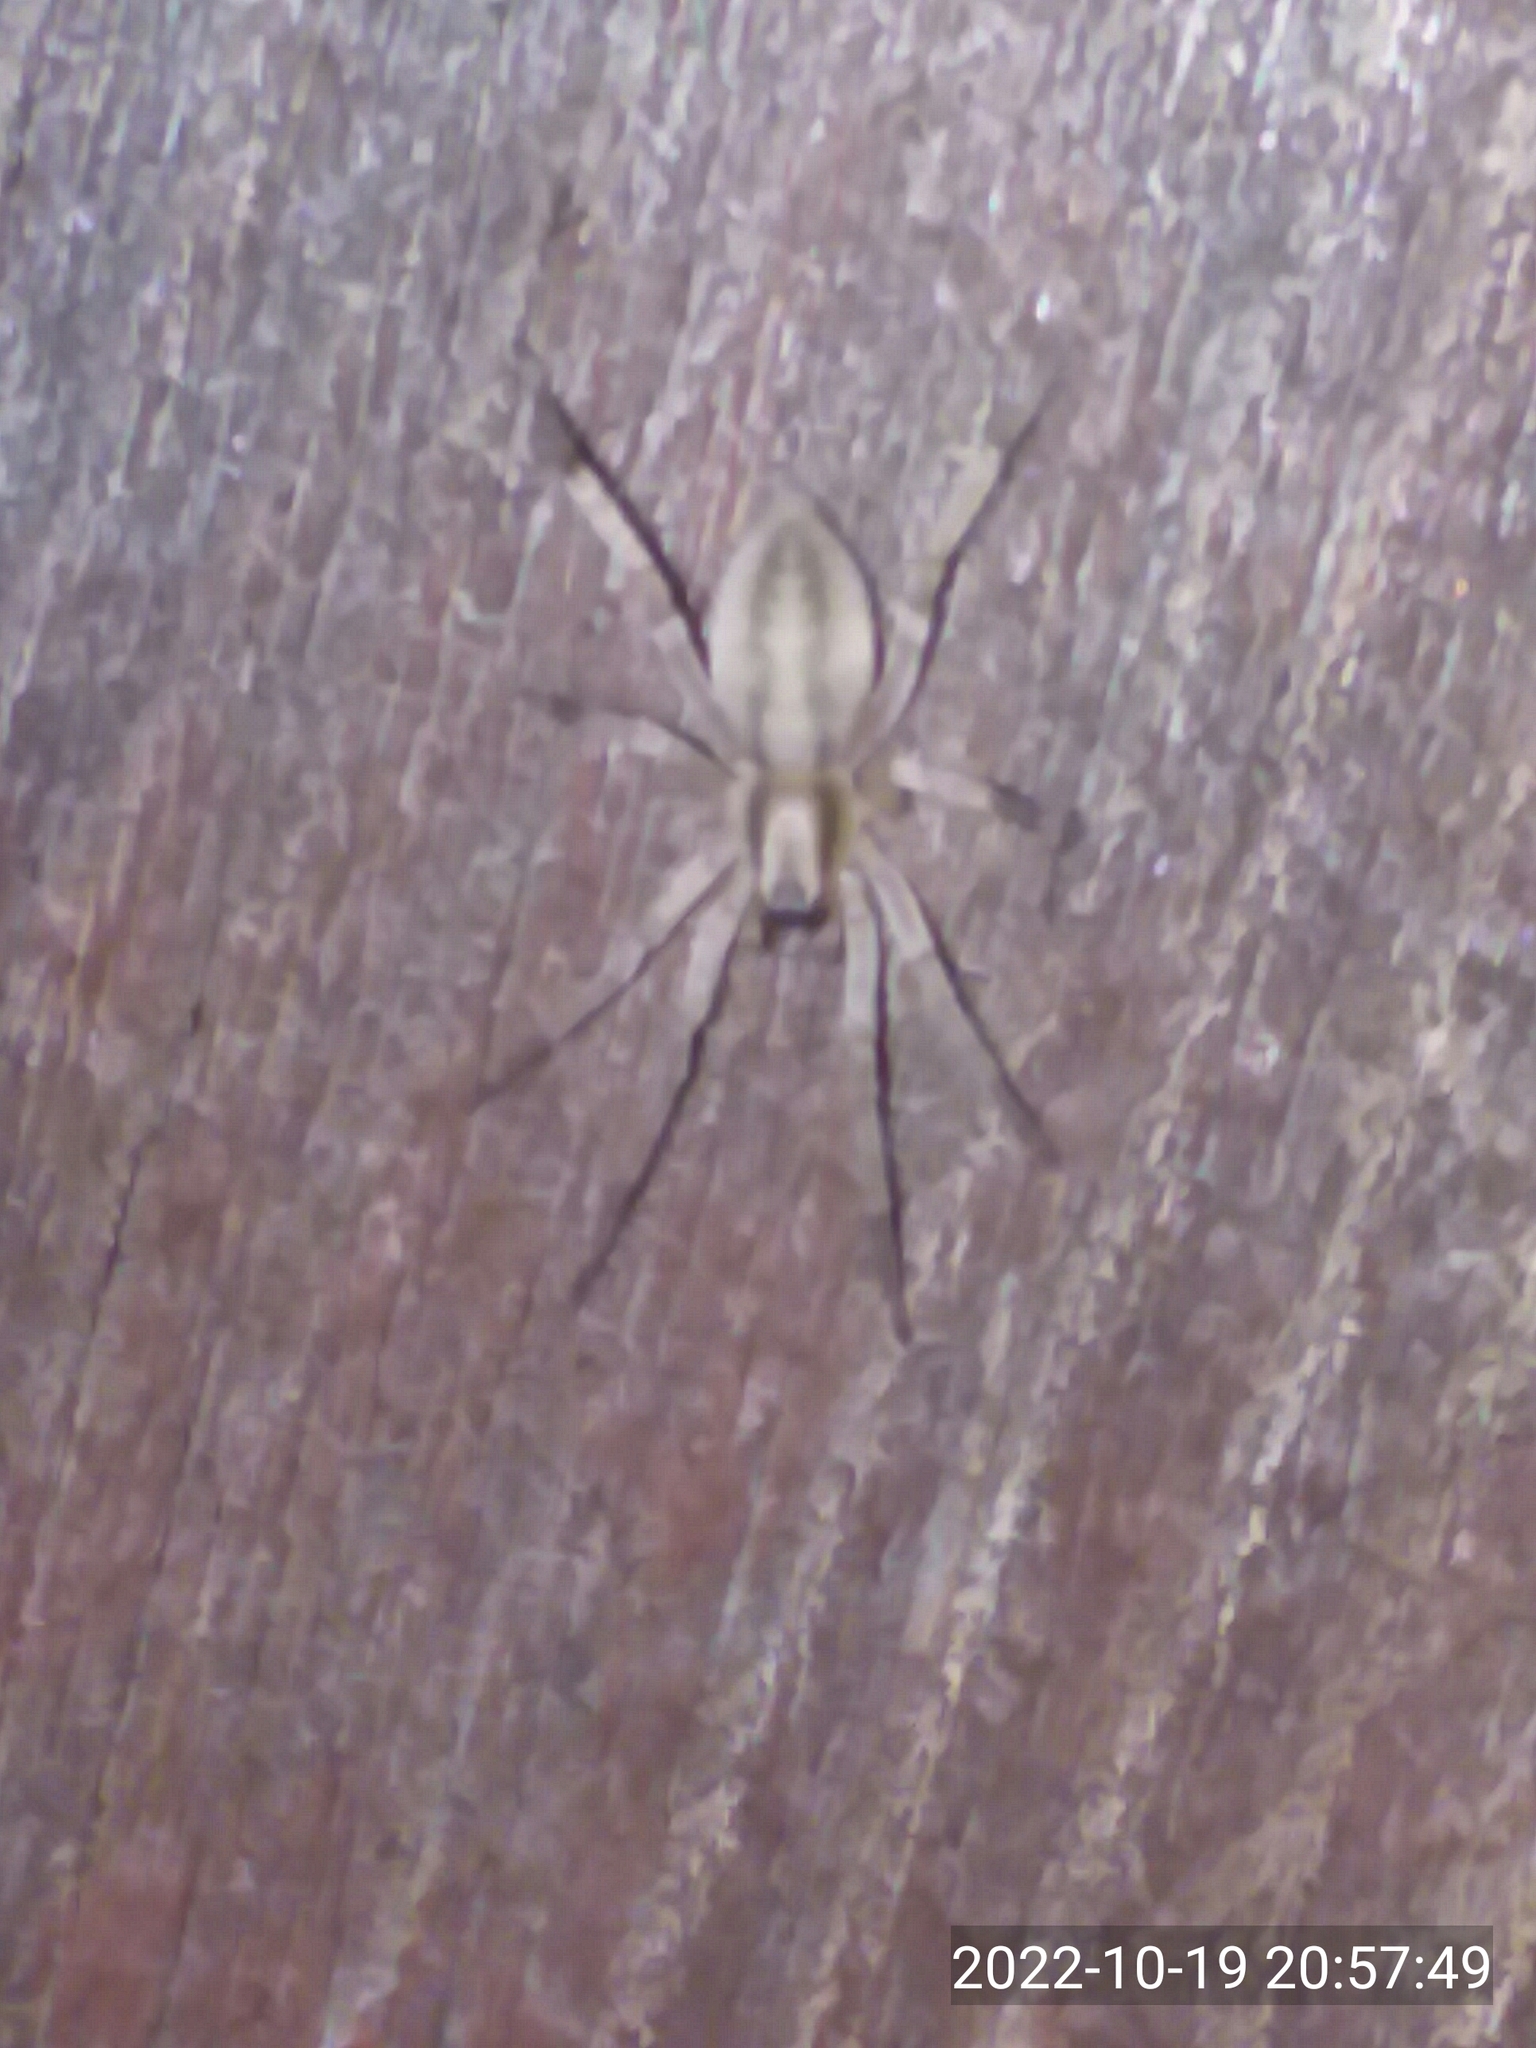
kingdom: Animalia
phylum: Arthropoda
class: Arachnida
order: Araneae
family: Anyphaenidae
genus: Hibana
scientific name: Hibana incursa
